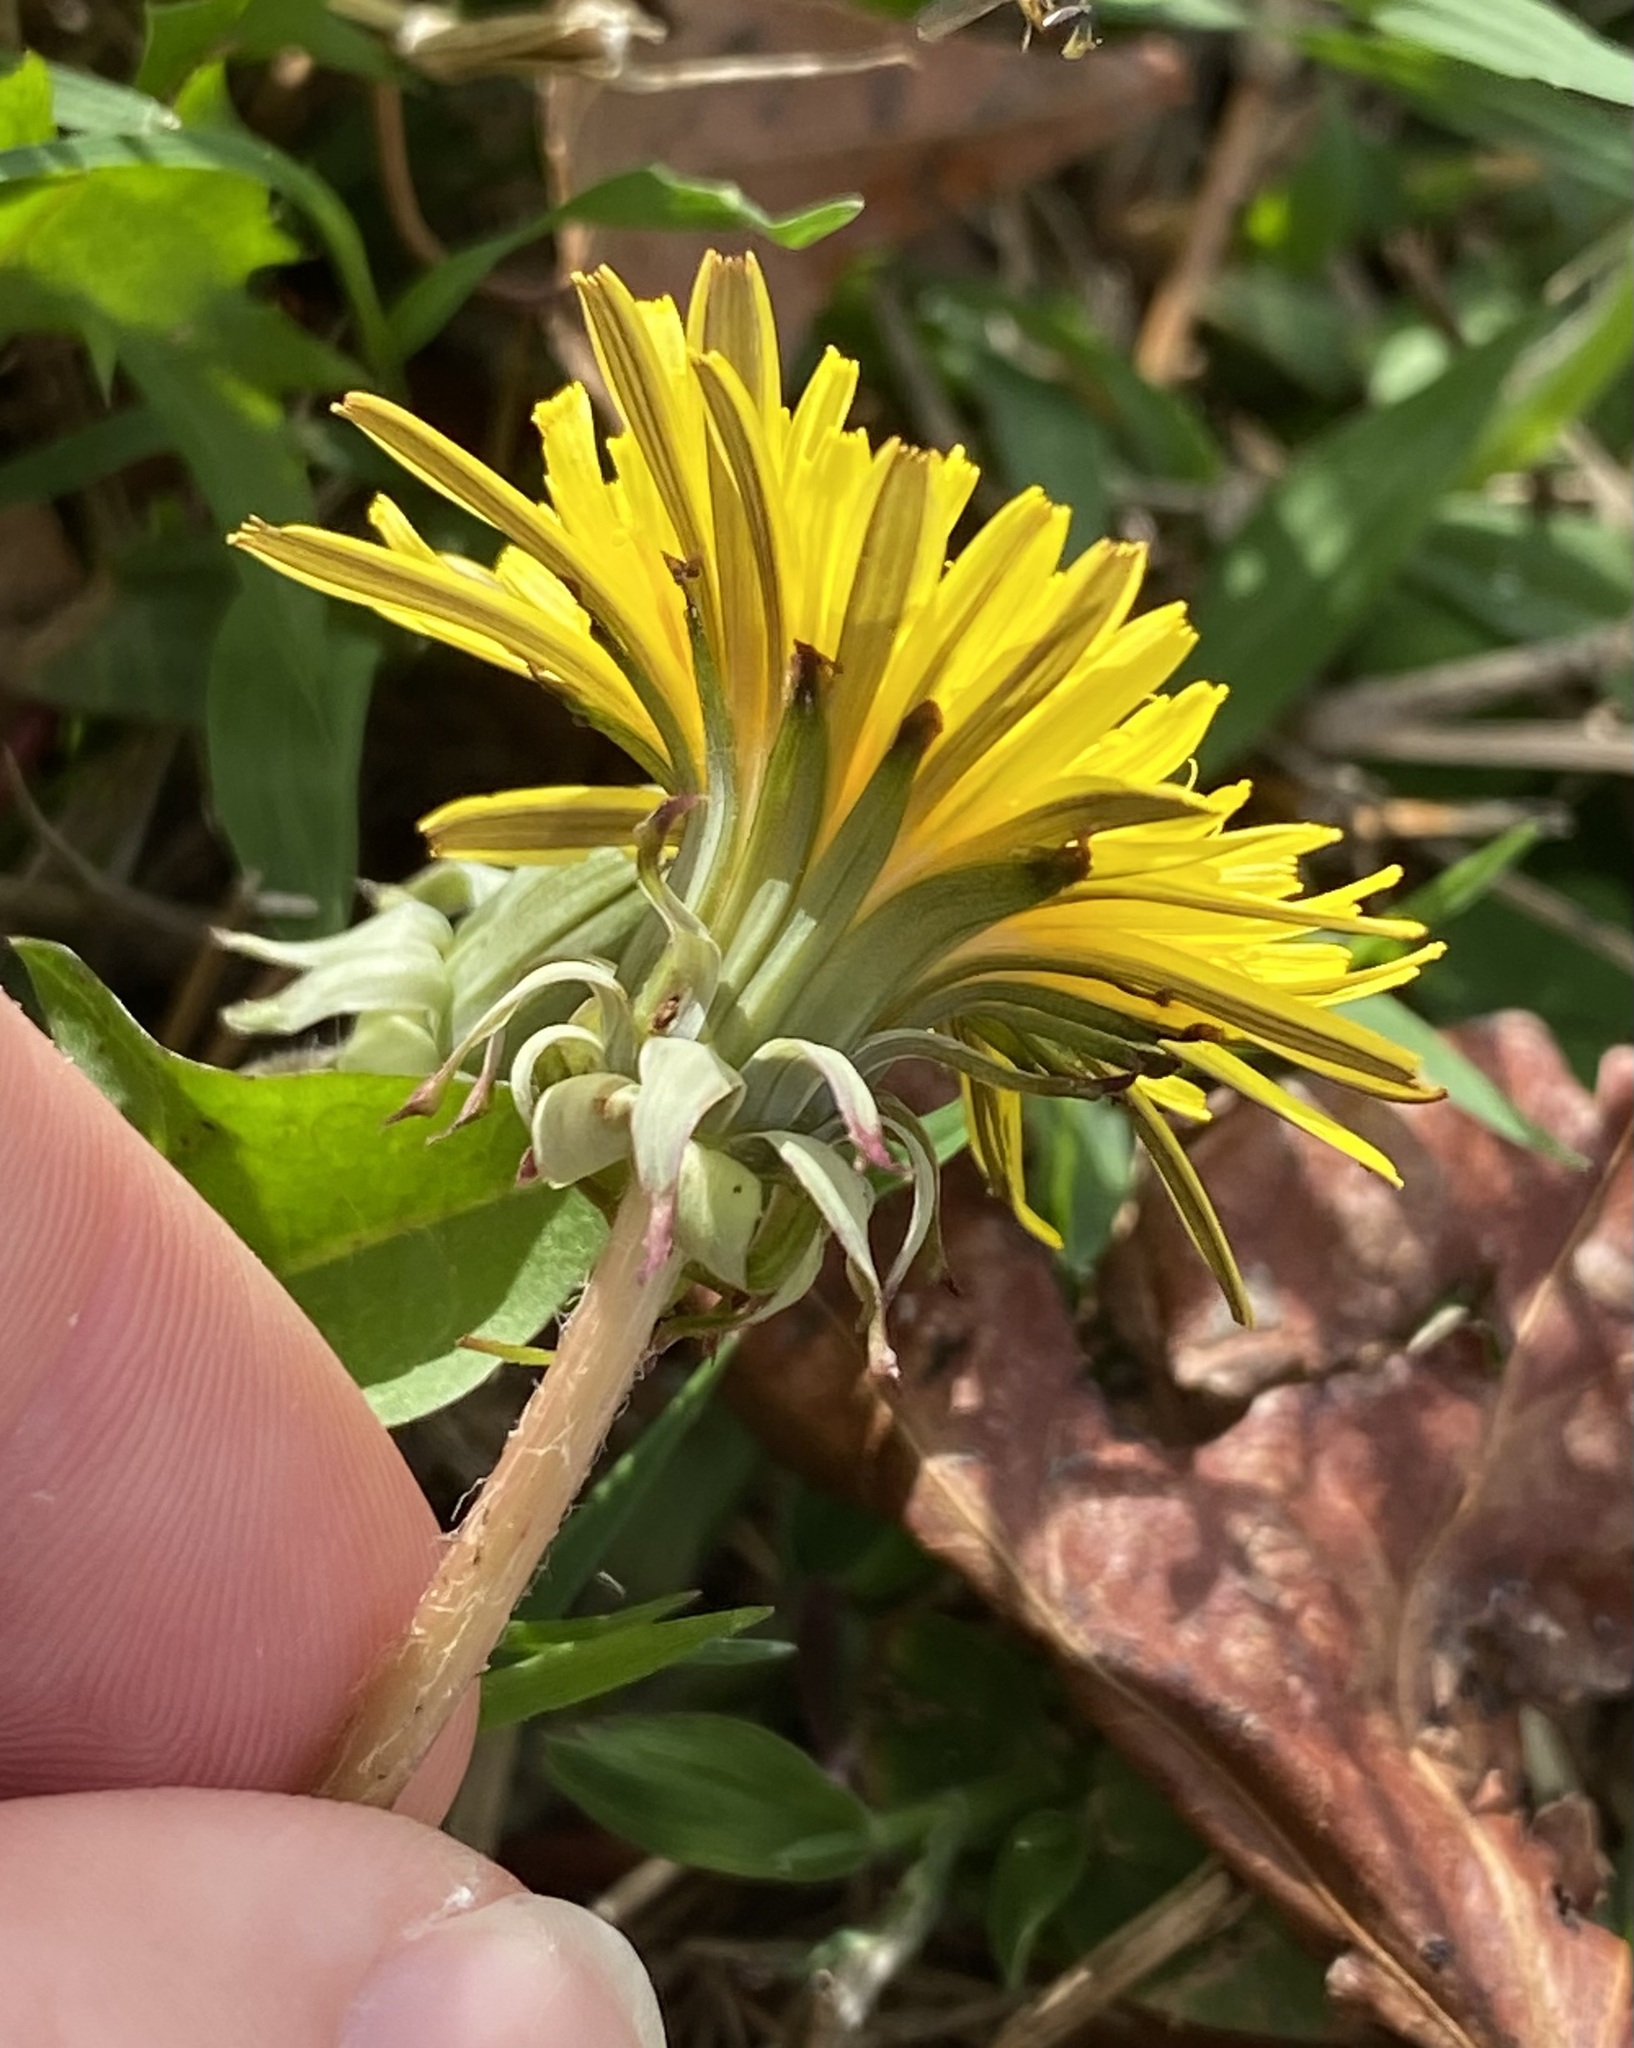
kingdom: Plantae
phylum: Tracheophyta
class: Magnoliopsida
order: Asterales
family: Asteraceae
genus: Taraxacum
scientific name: Taraxacum
